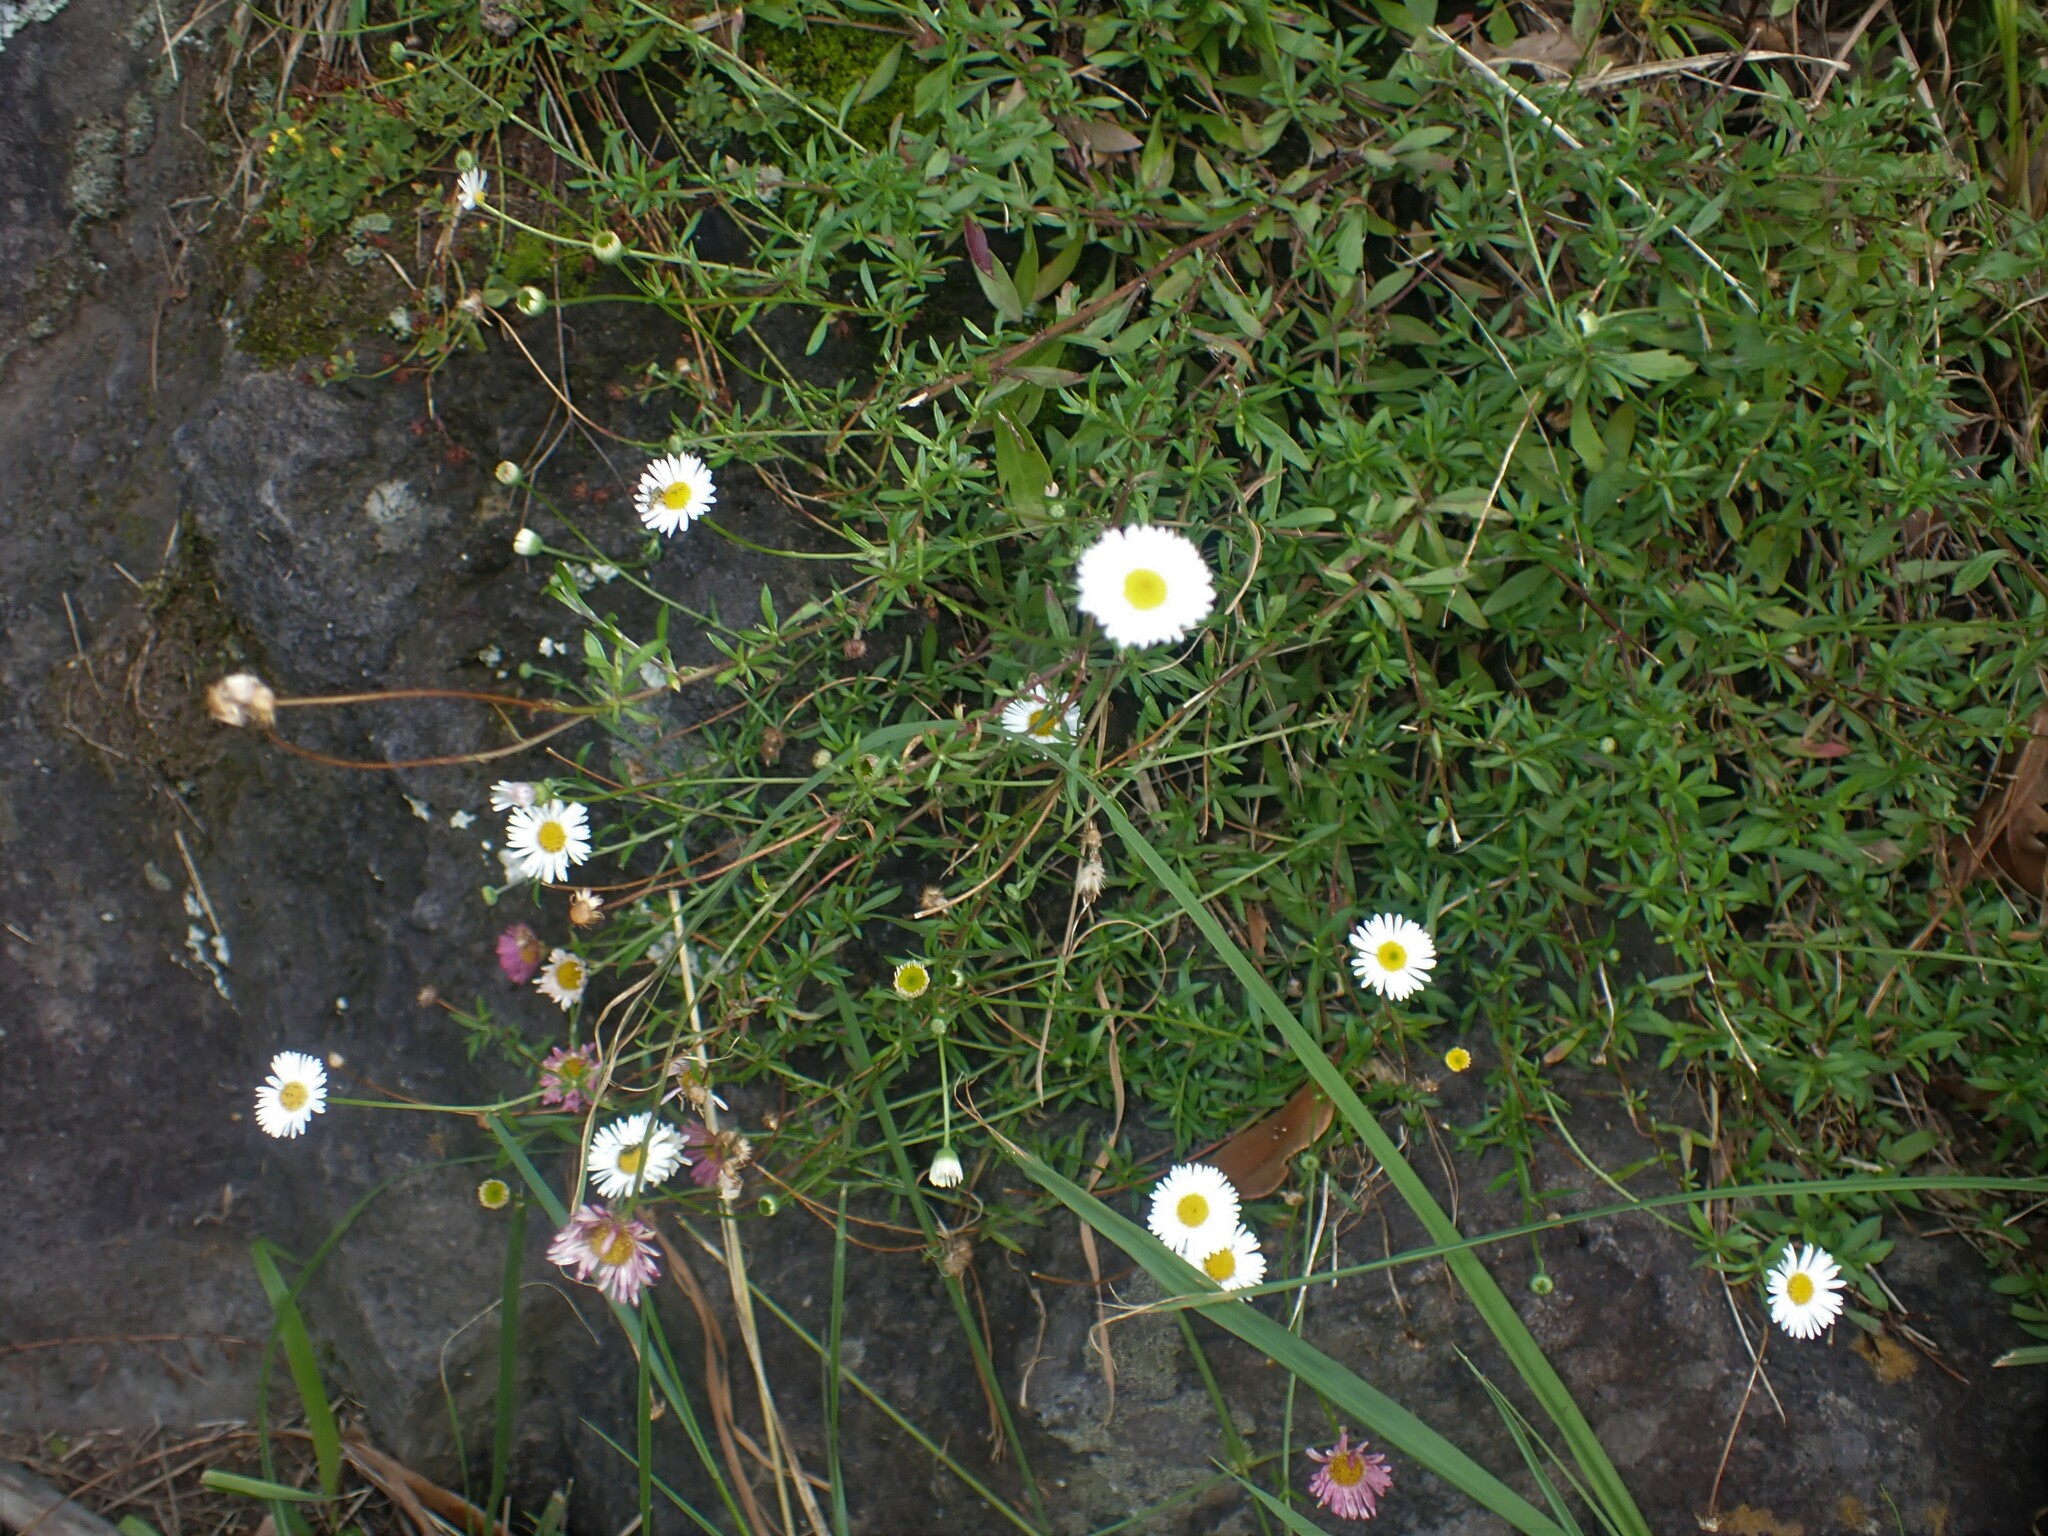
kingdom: Plantae
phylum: Tracheophyta
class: Magnoliopsida
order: Asterales
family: Asteraceae
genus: Erigeron
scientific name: Erigeron karvinskianus
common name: Mexican fleabane
